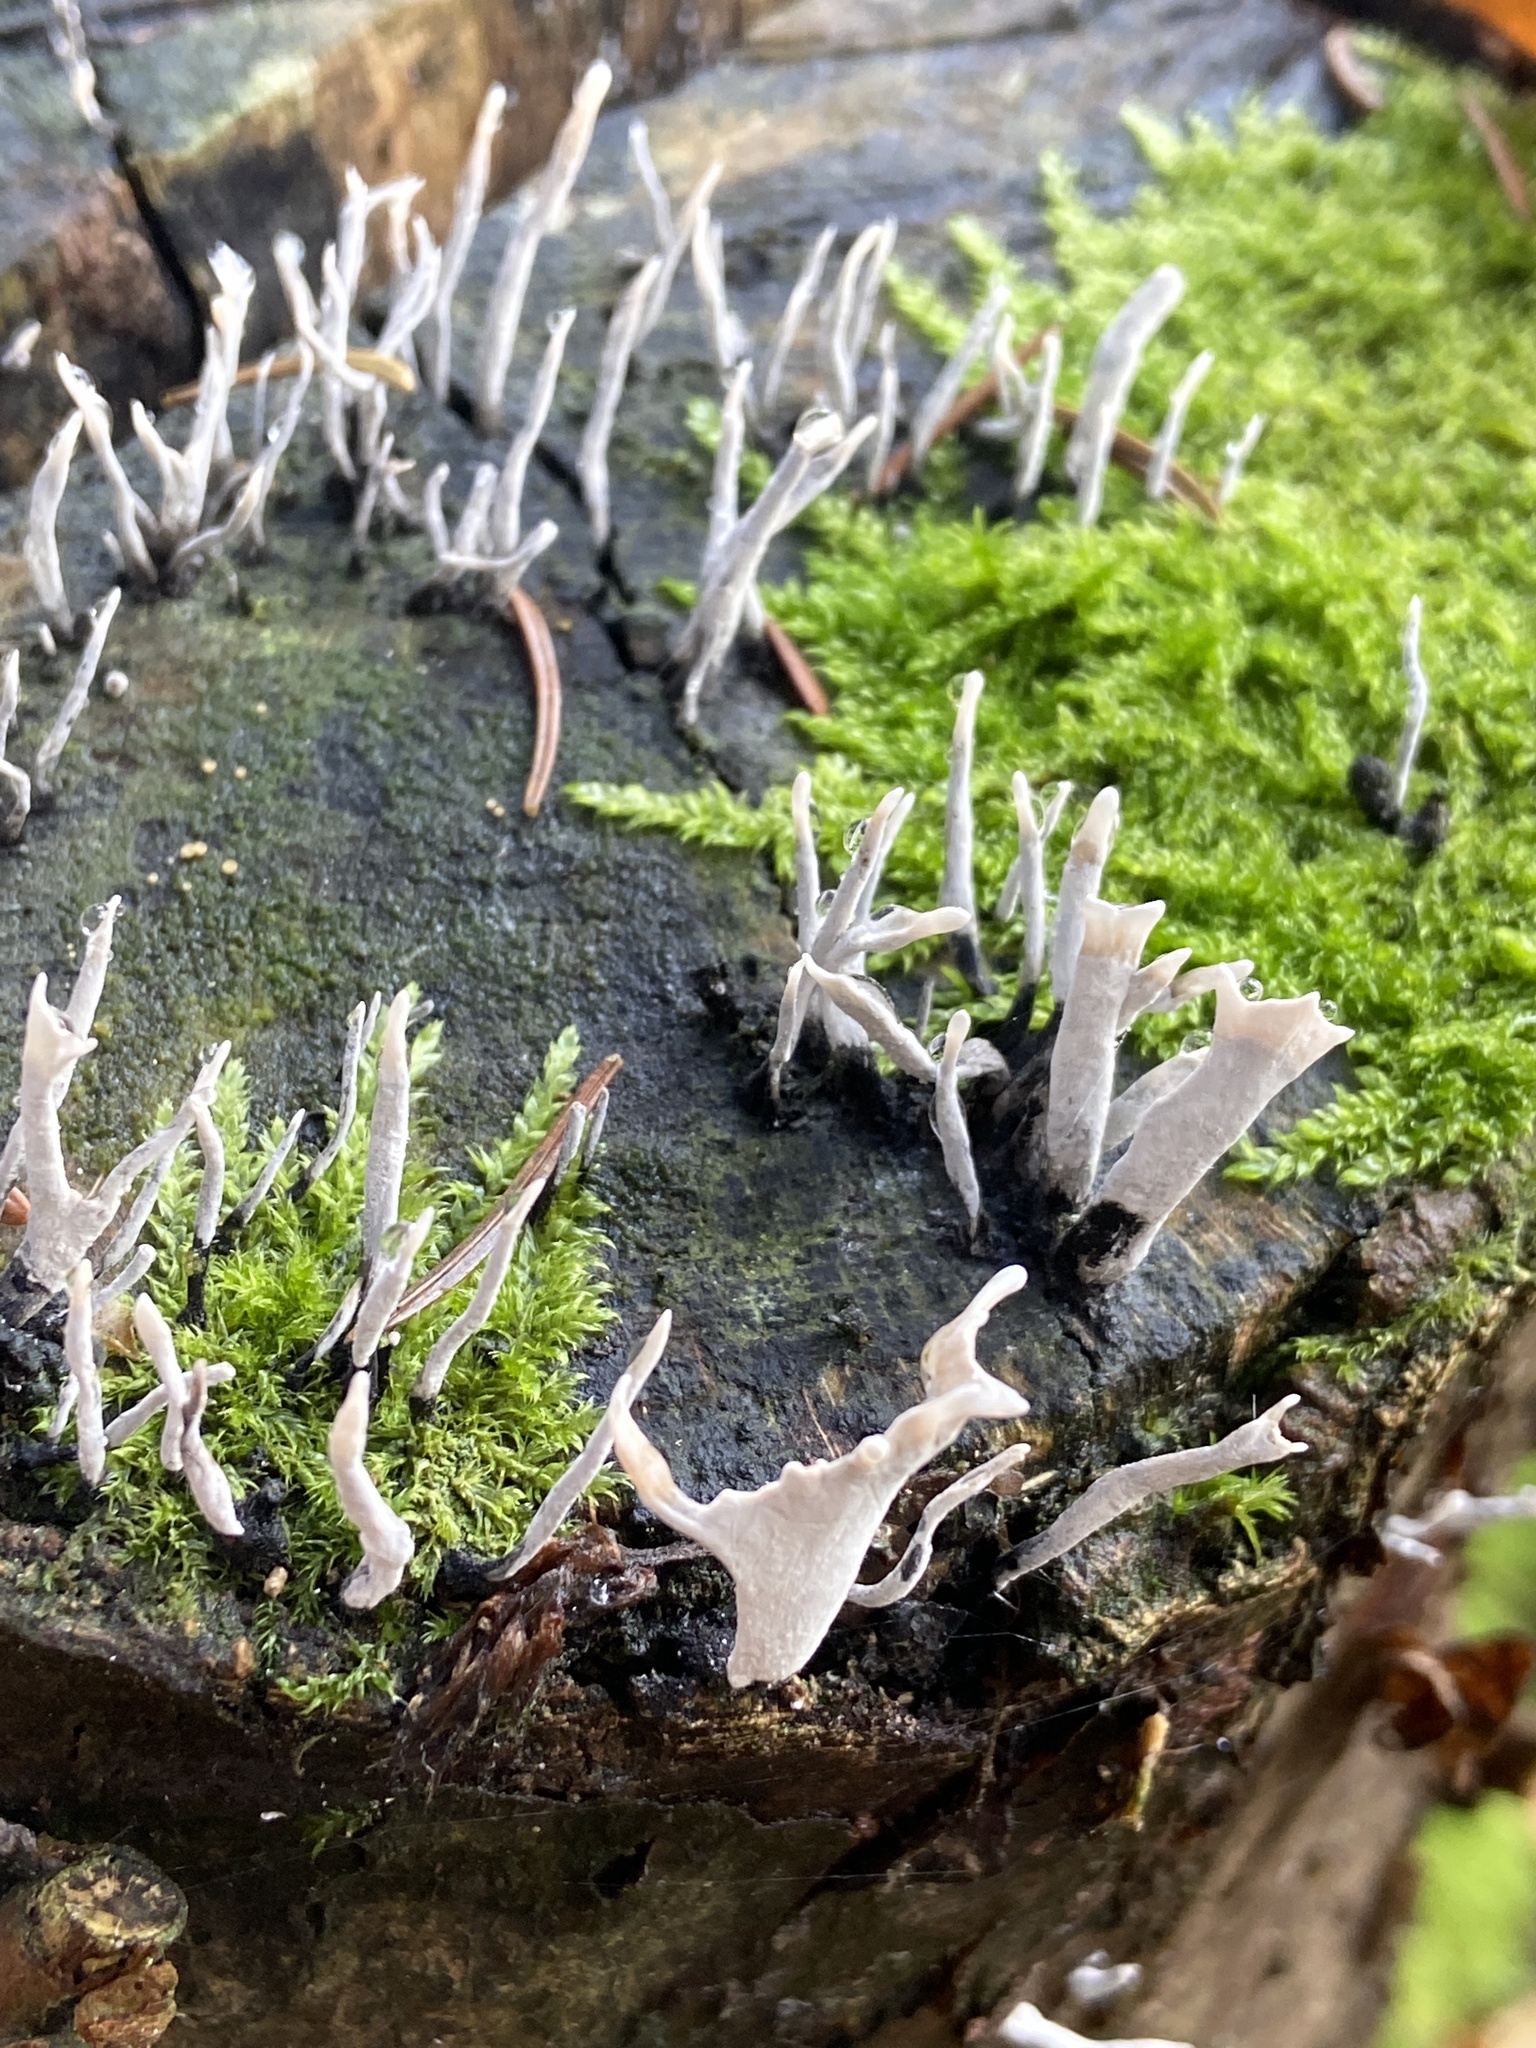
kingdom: Fungi
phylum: Ascomycota
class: Sordariomycetes
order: Xylariales
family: Xylariaceae
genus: Xylaria
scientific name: Xylaria hypoxylon
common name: Candle-snuff fungus
